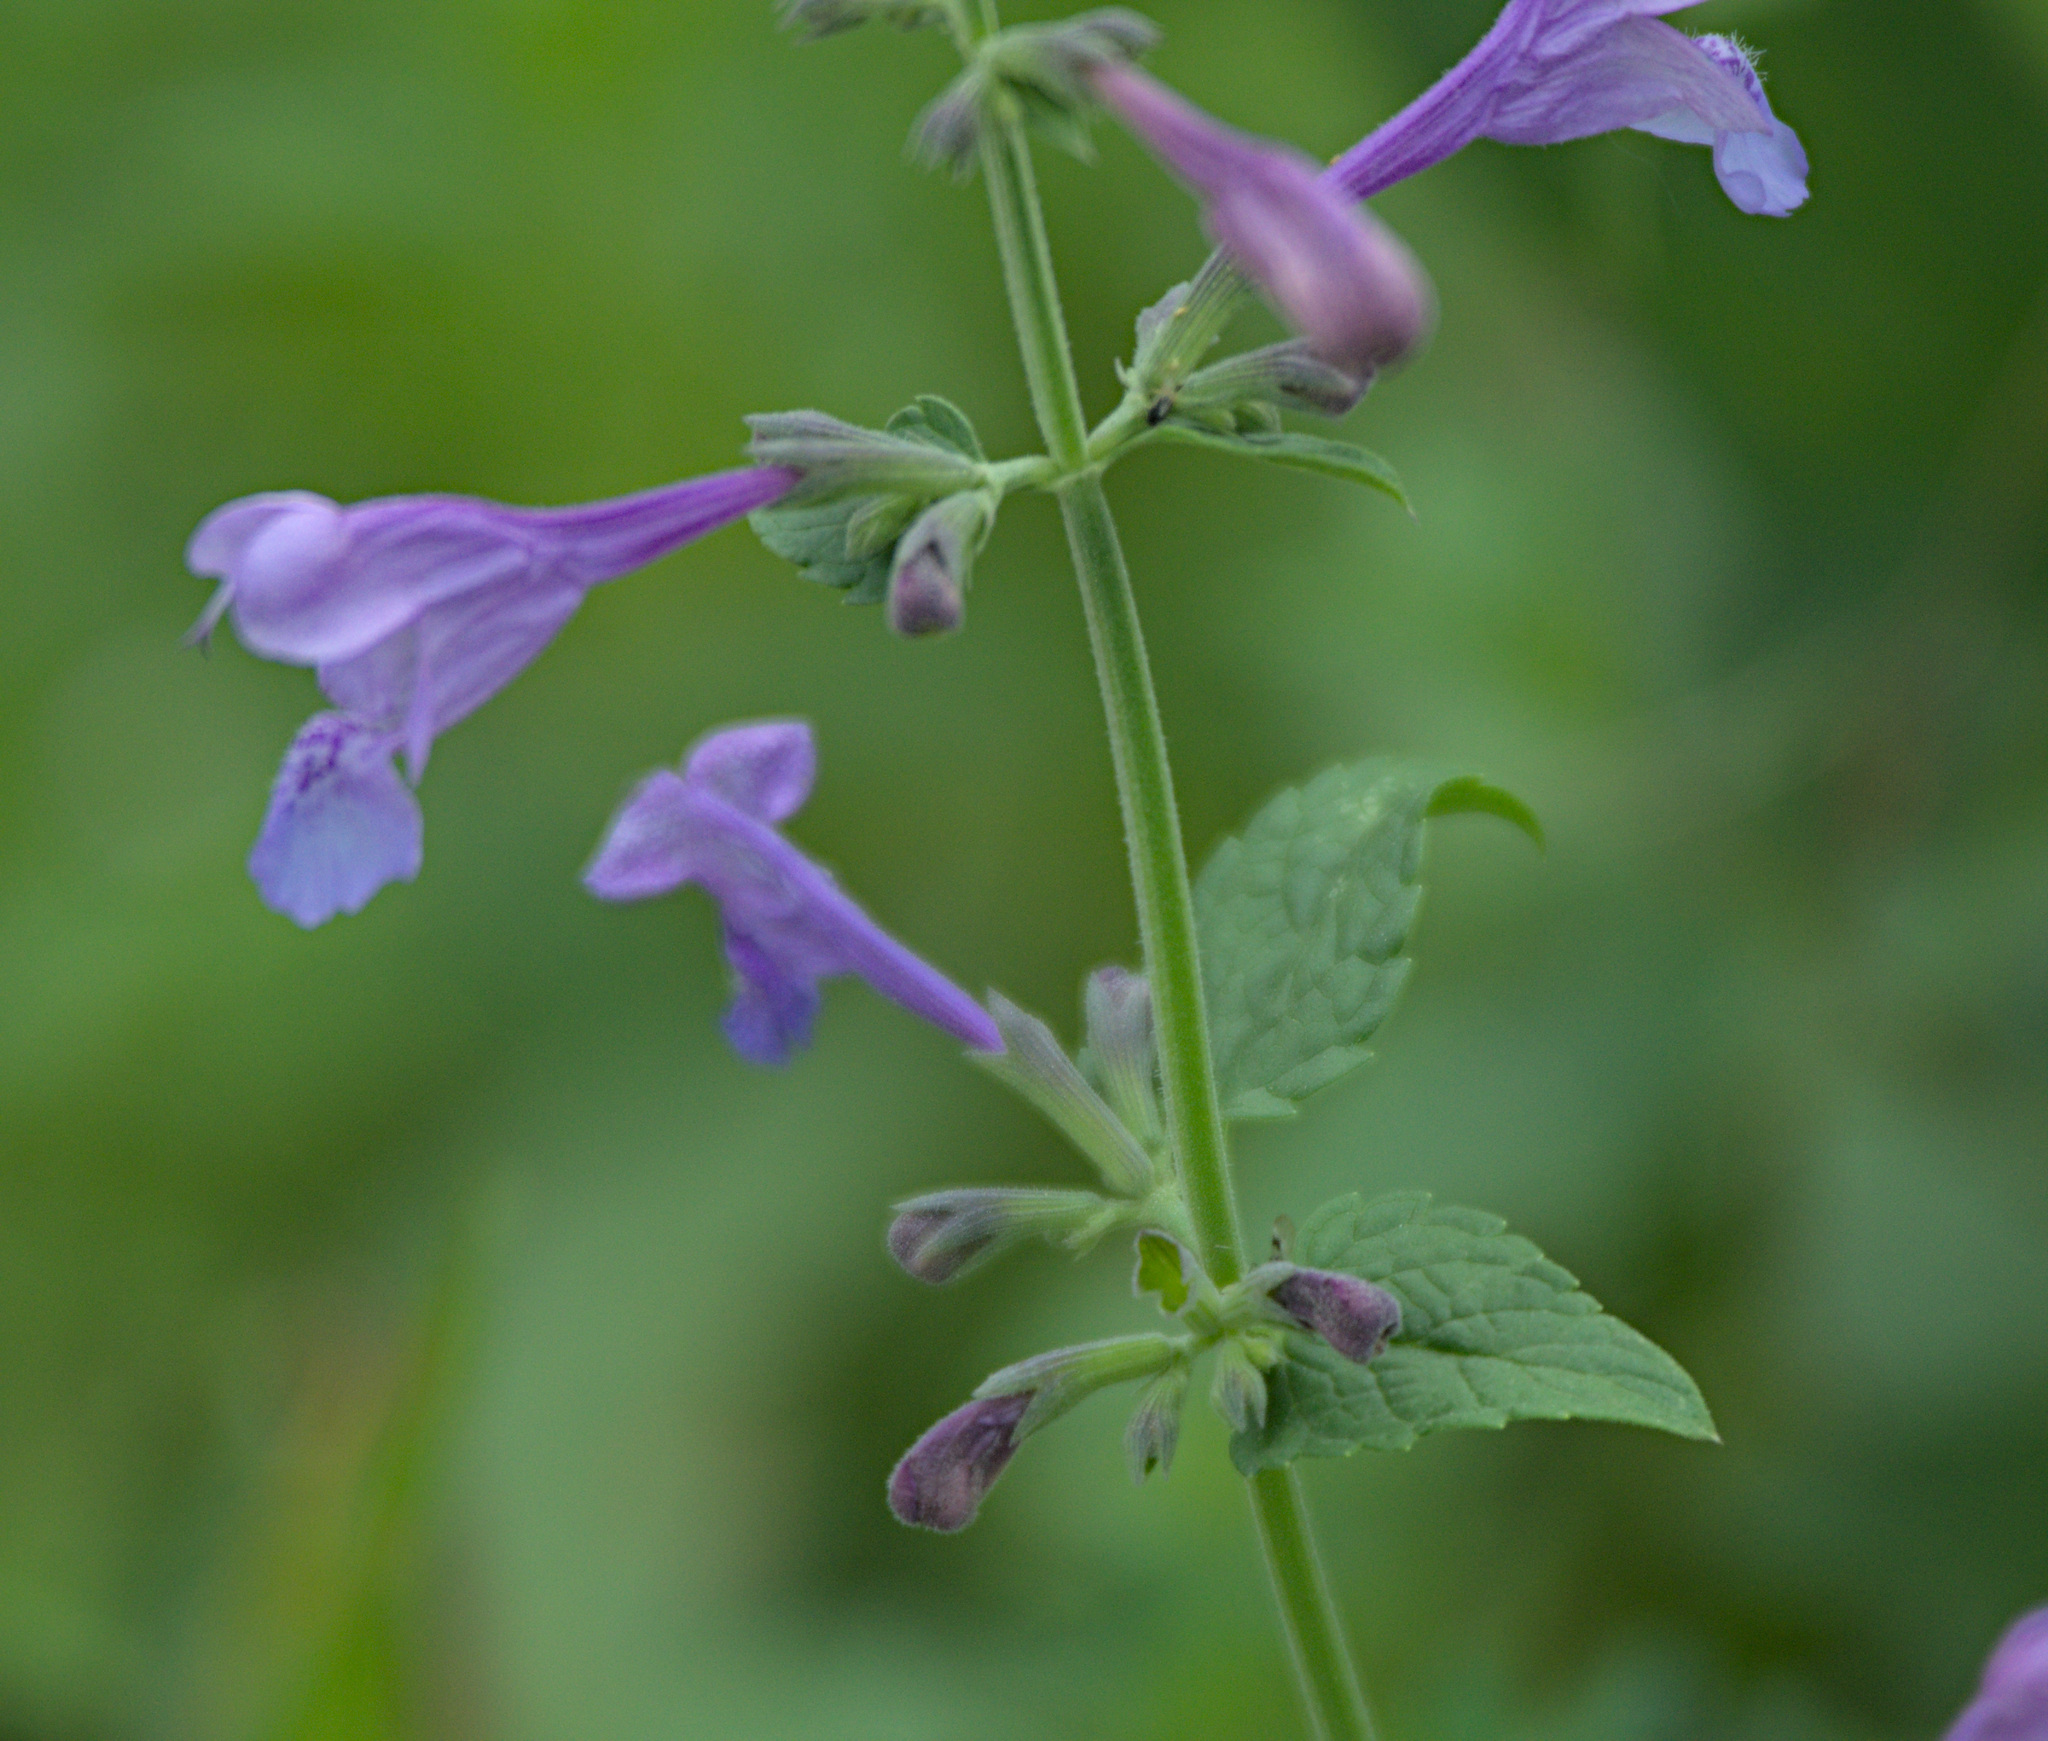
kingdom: Plantae
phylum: Tracheophyta
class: Magnoliopsida
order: Lamiales
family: Lamiaceae
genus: Nepeta
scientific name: Nepeta sibirica
